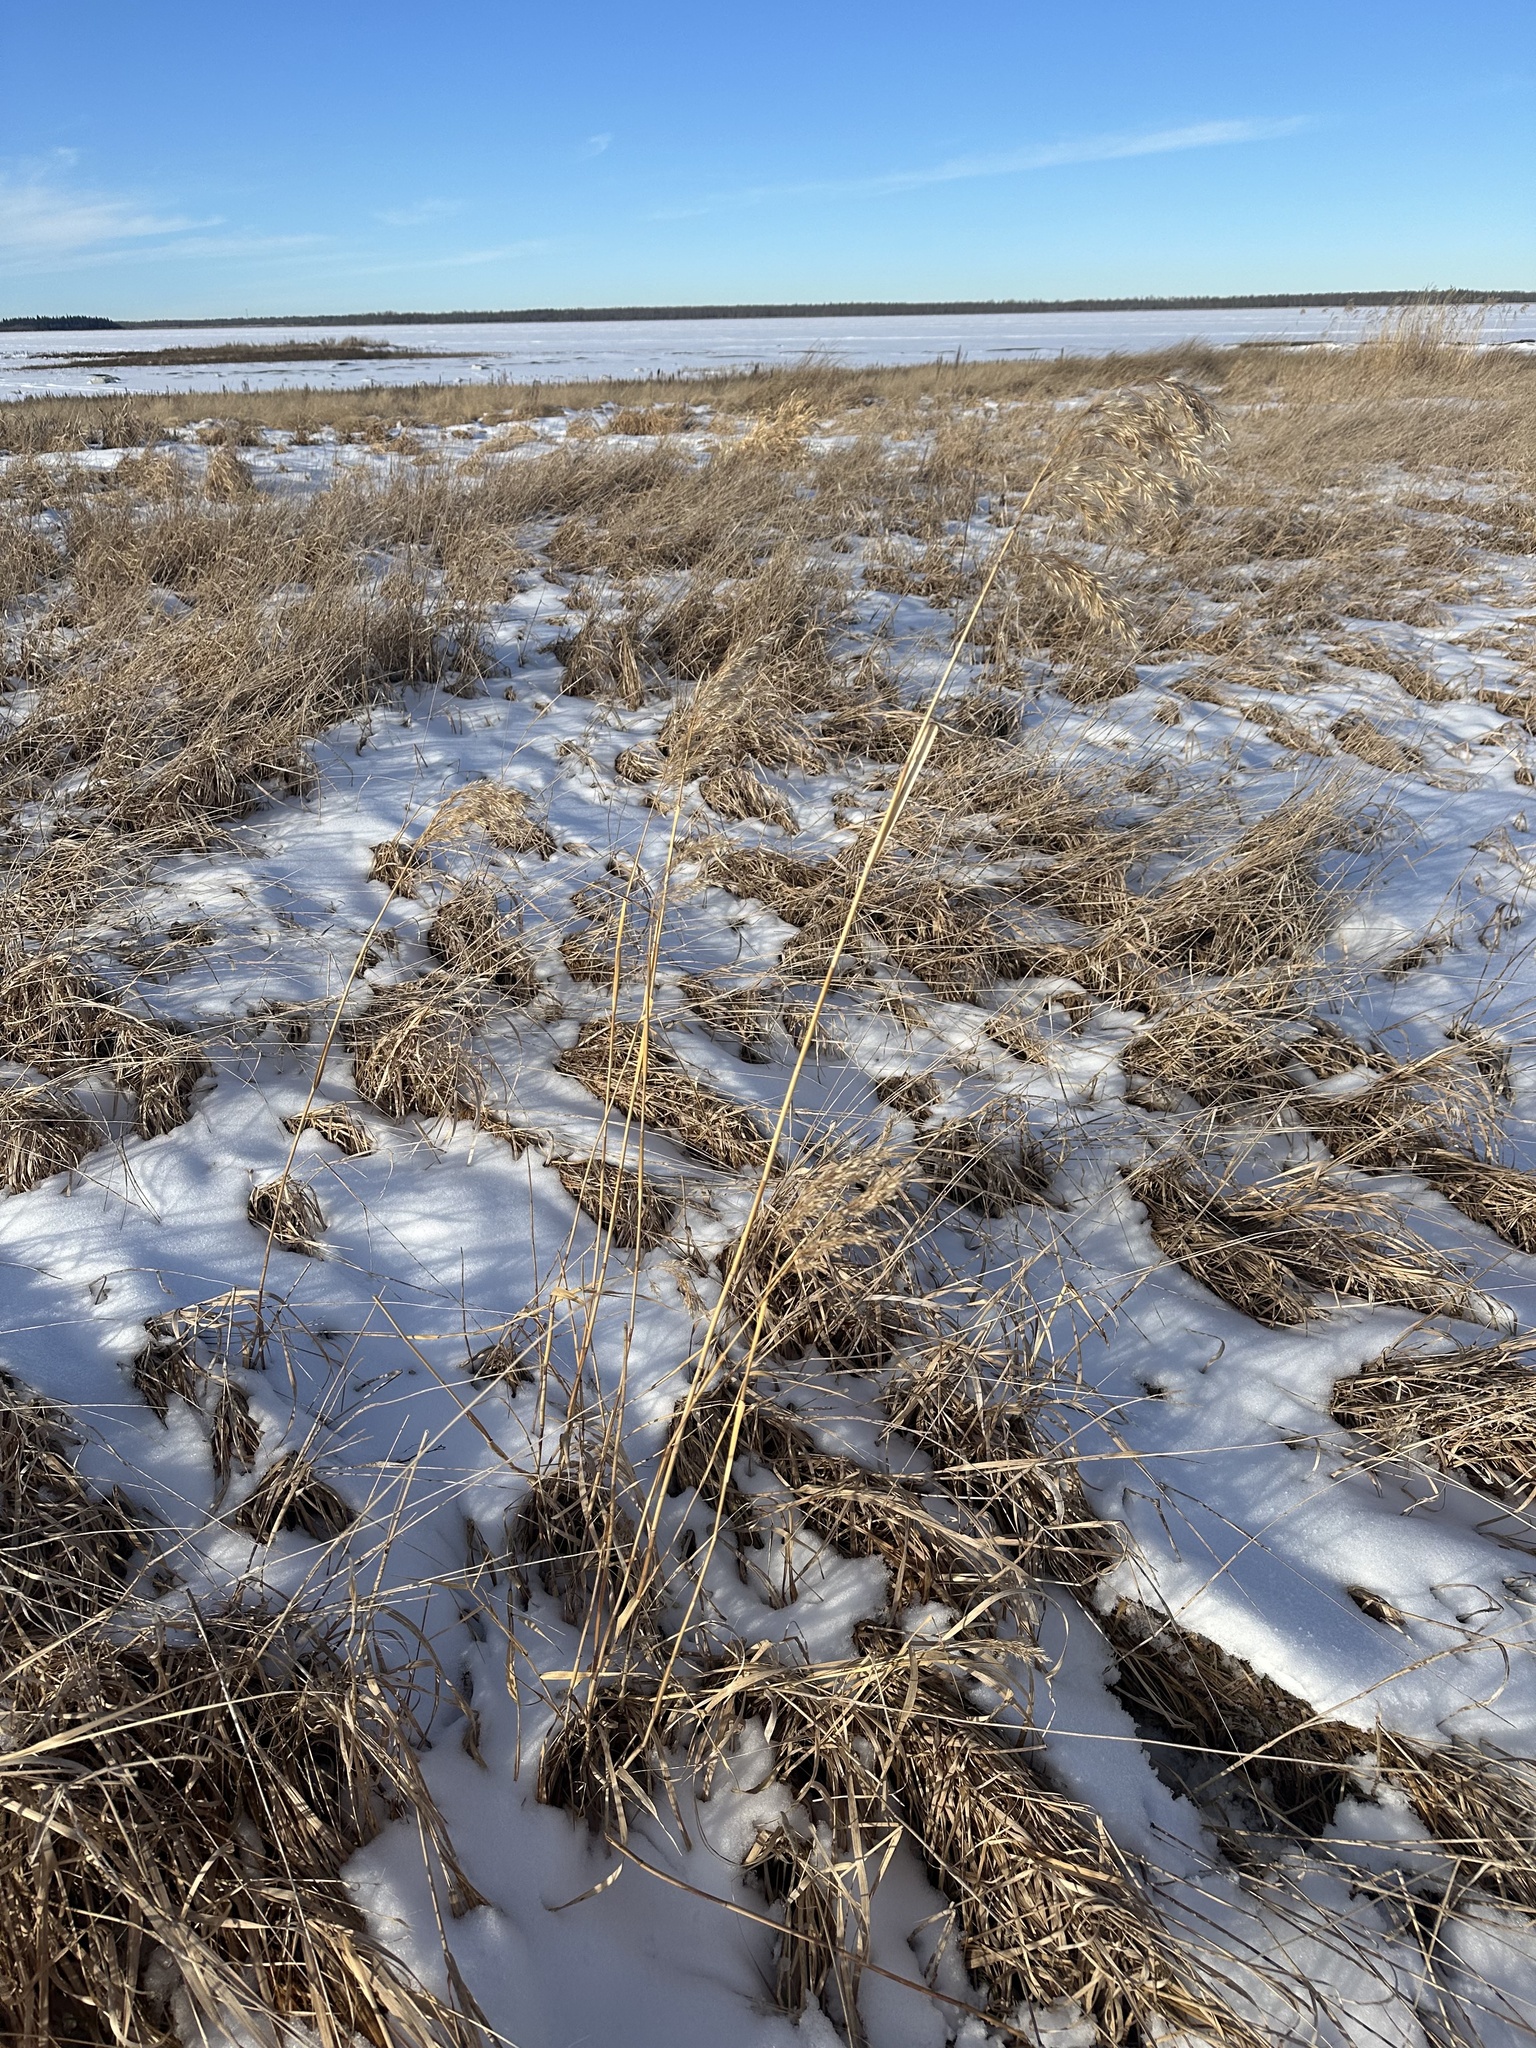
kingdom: Plantae
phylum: Tracheophyta
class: Liliopsida
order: Poales
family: Poaceae
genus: Phragmites
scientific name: Phragmites australis
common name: Common reed
